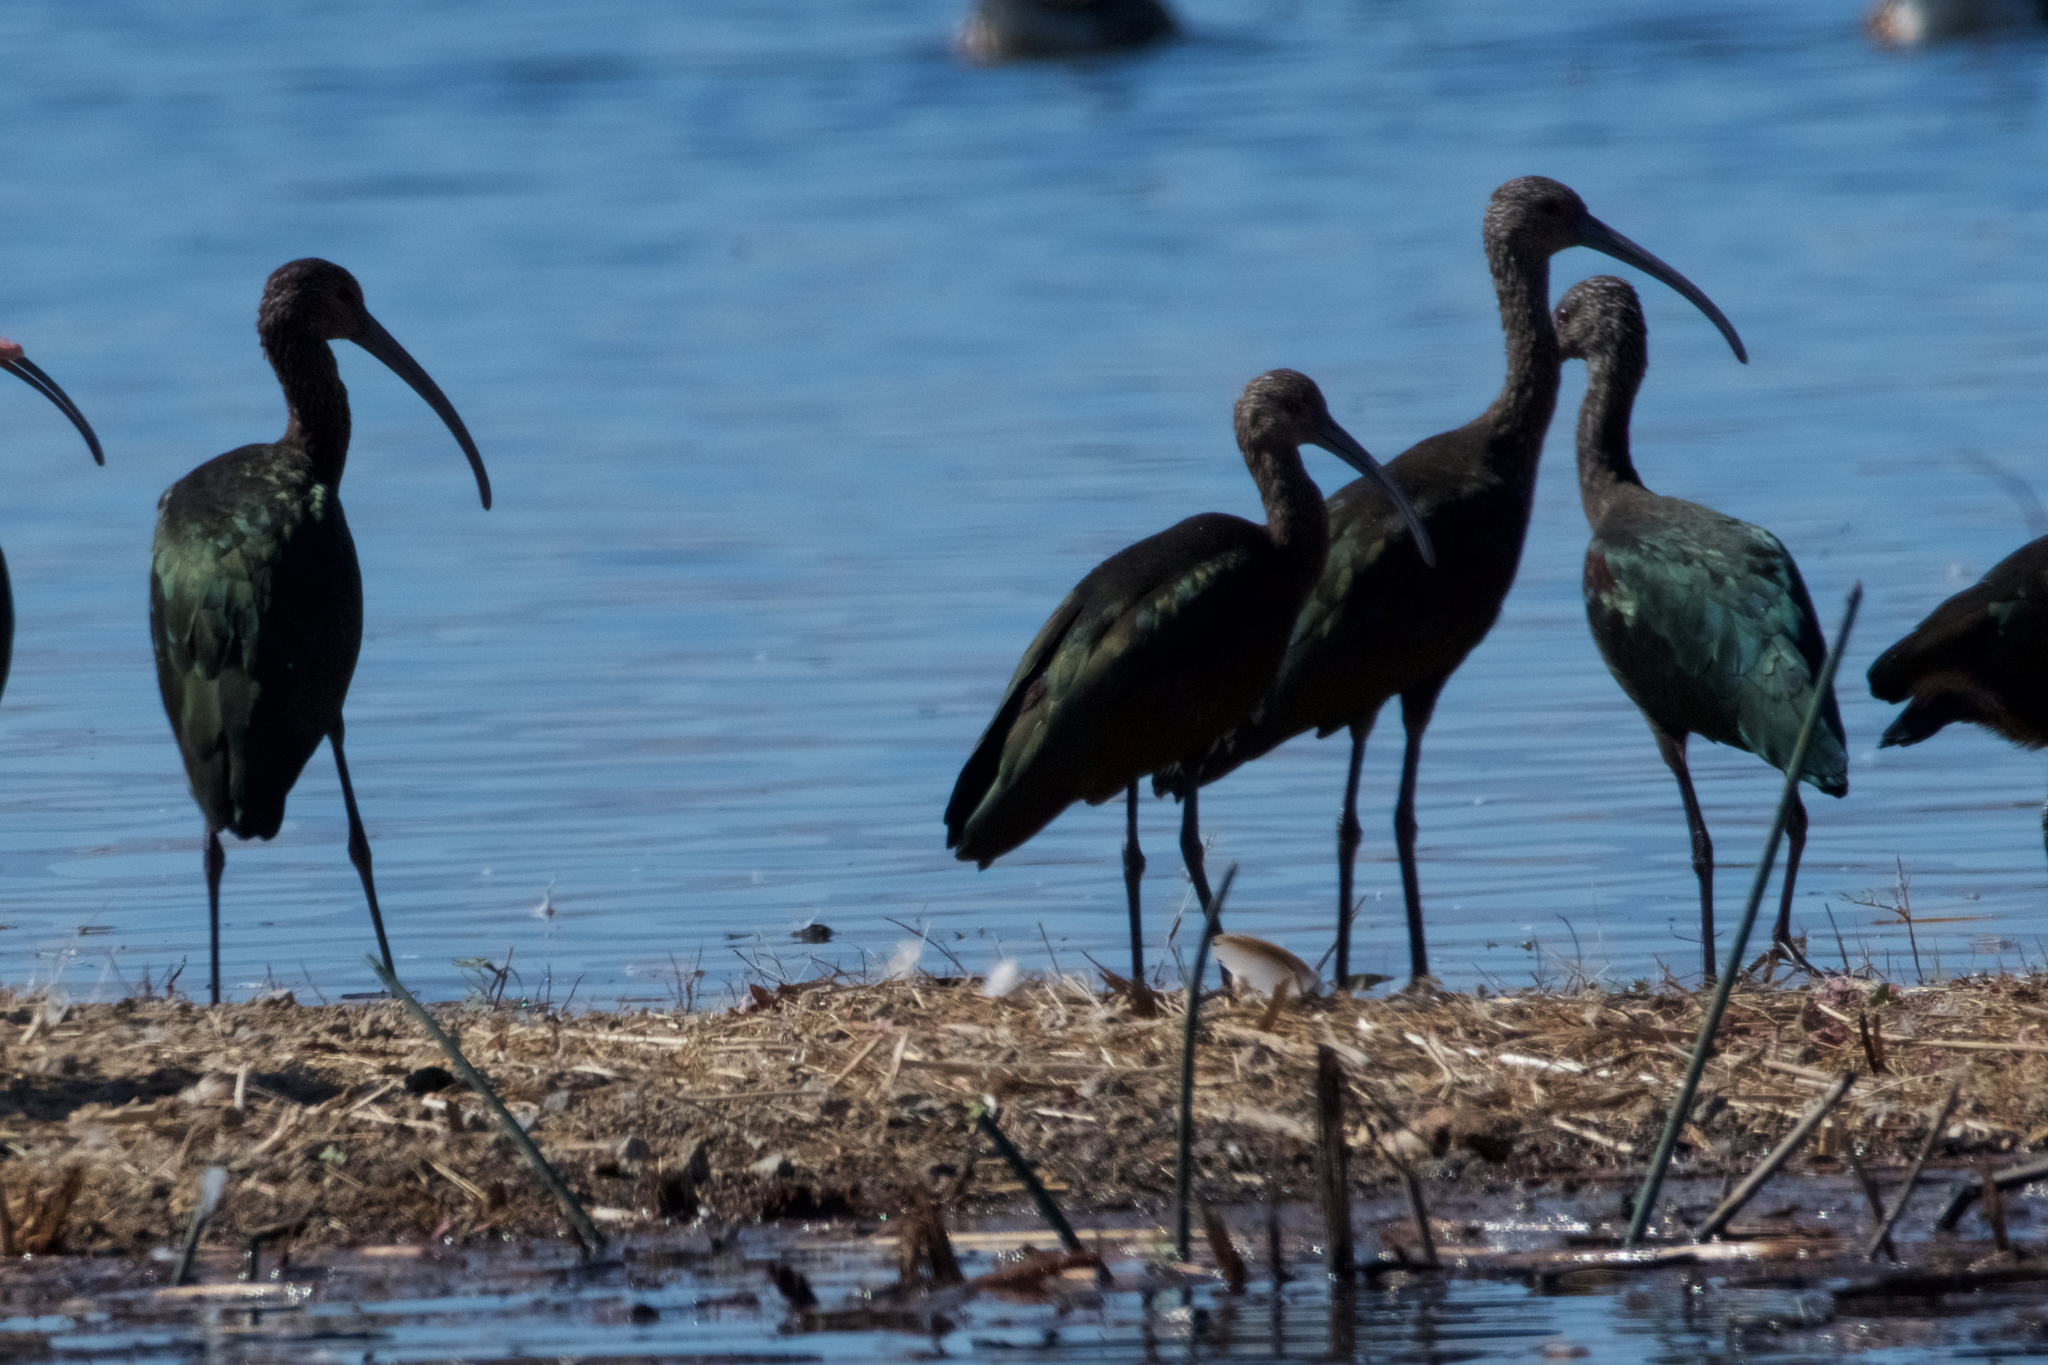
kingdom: Animalia
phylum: Chordata
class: Aves
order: Pelecaniformes
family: Threskiornithidae
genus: Plegadis
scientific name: Plegadis chihi
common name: White-faced ibis
